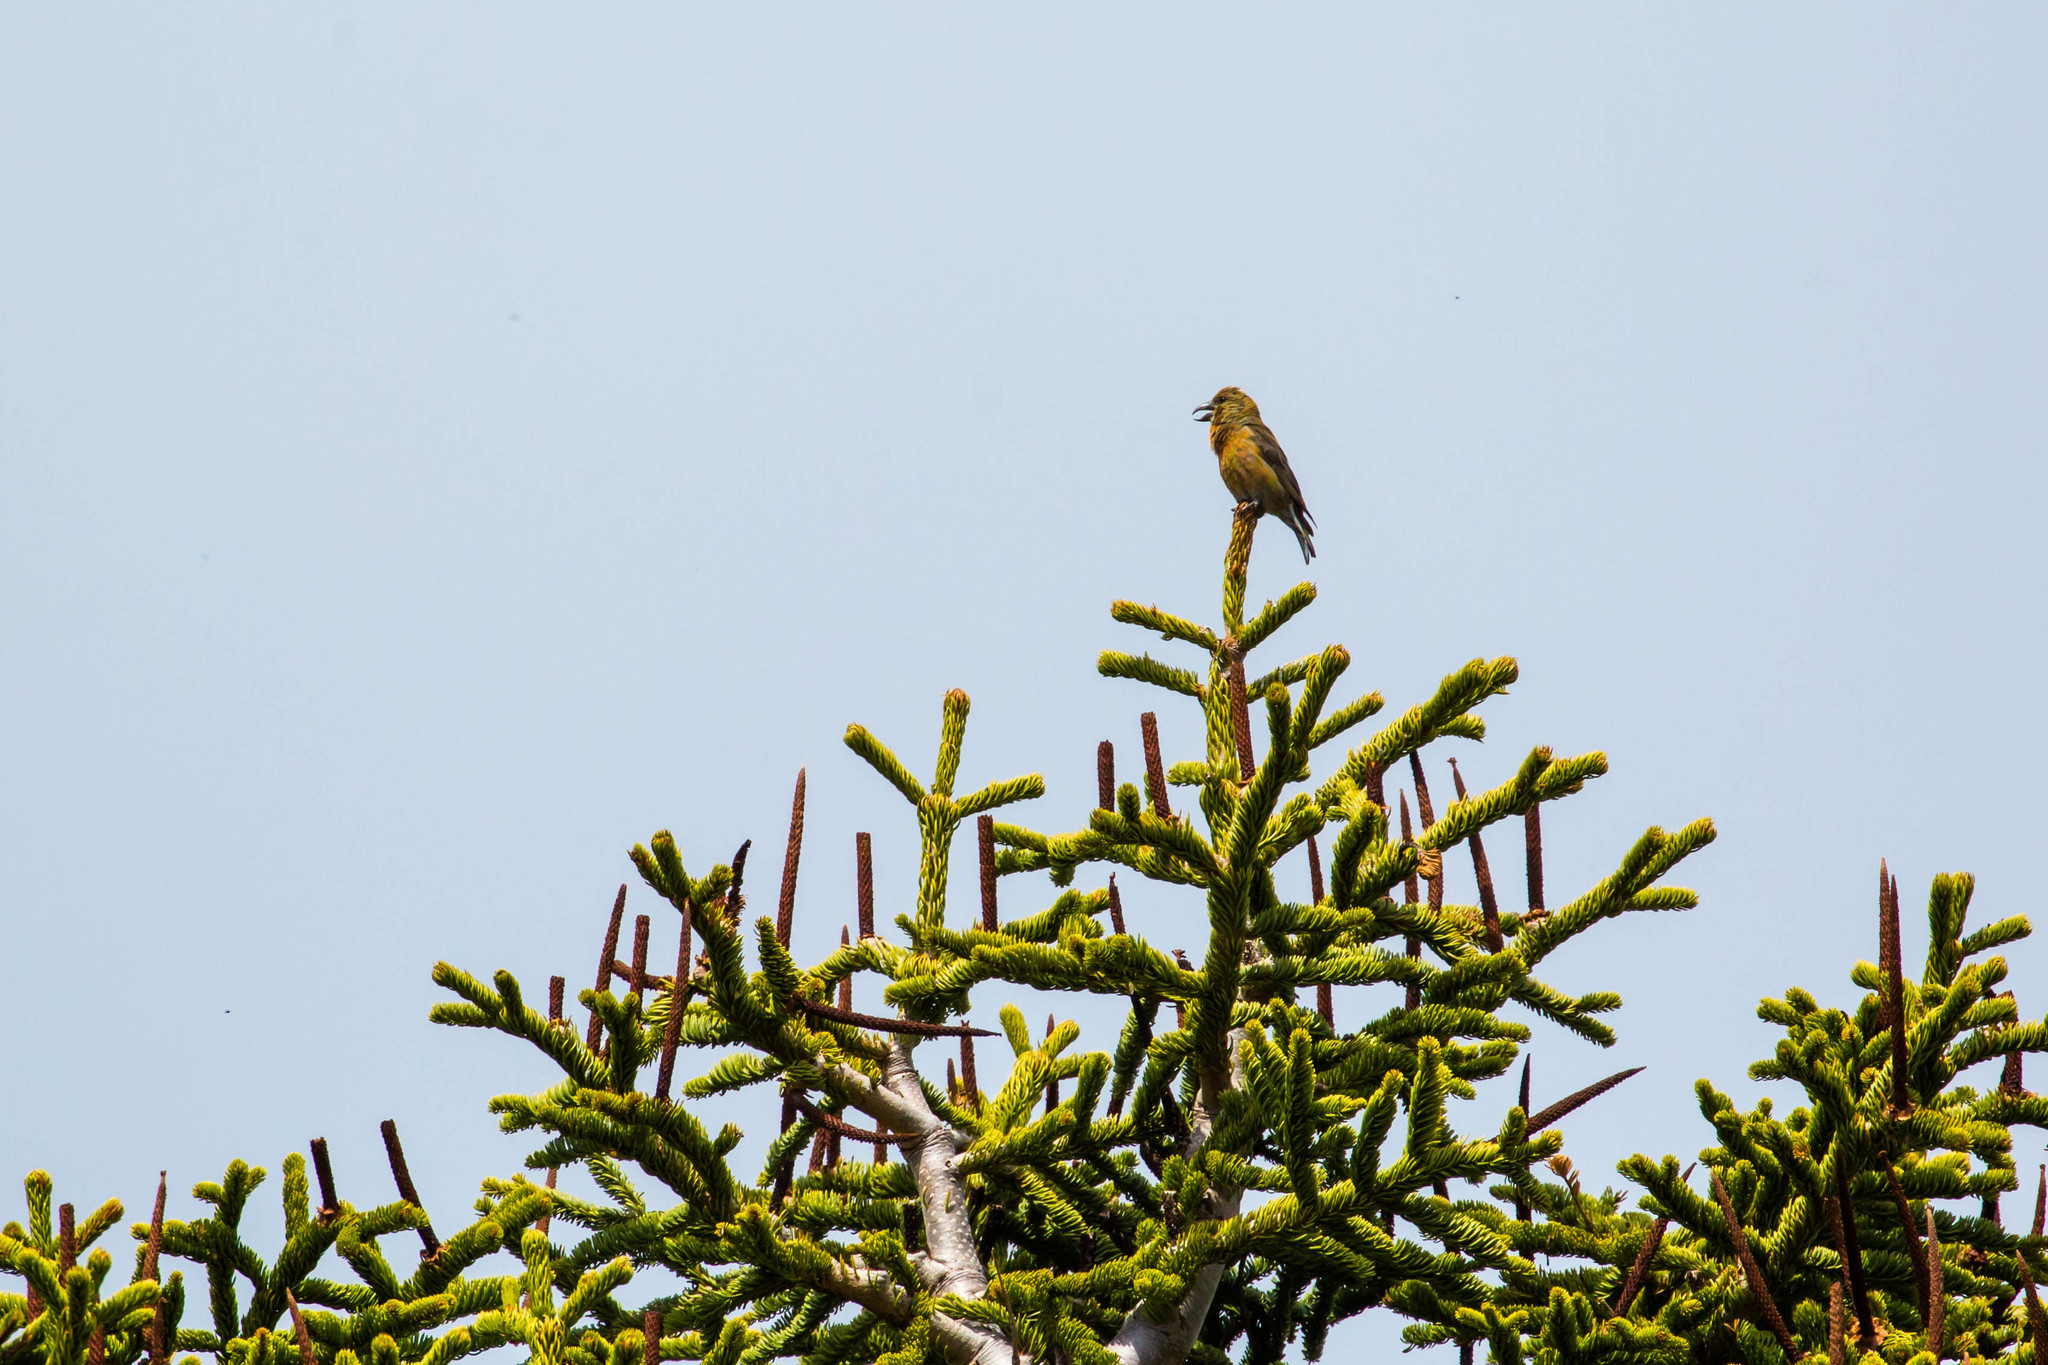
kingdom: Animalia
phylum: Chordata
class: Aves
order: Passeriformes
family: Fringillidae
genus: Loxia
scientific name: Loxia curvirostra
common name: Red crossbill
